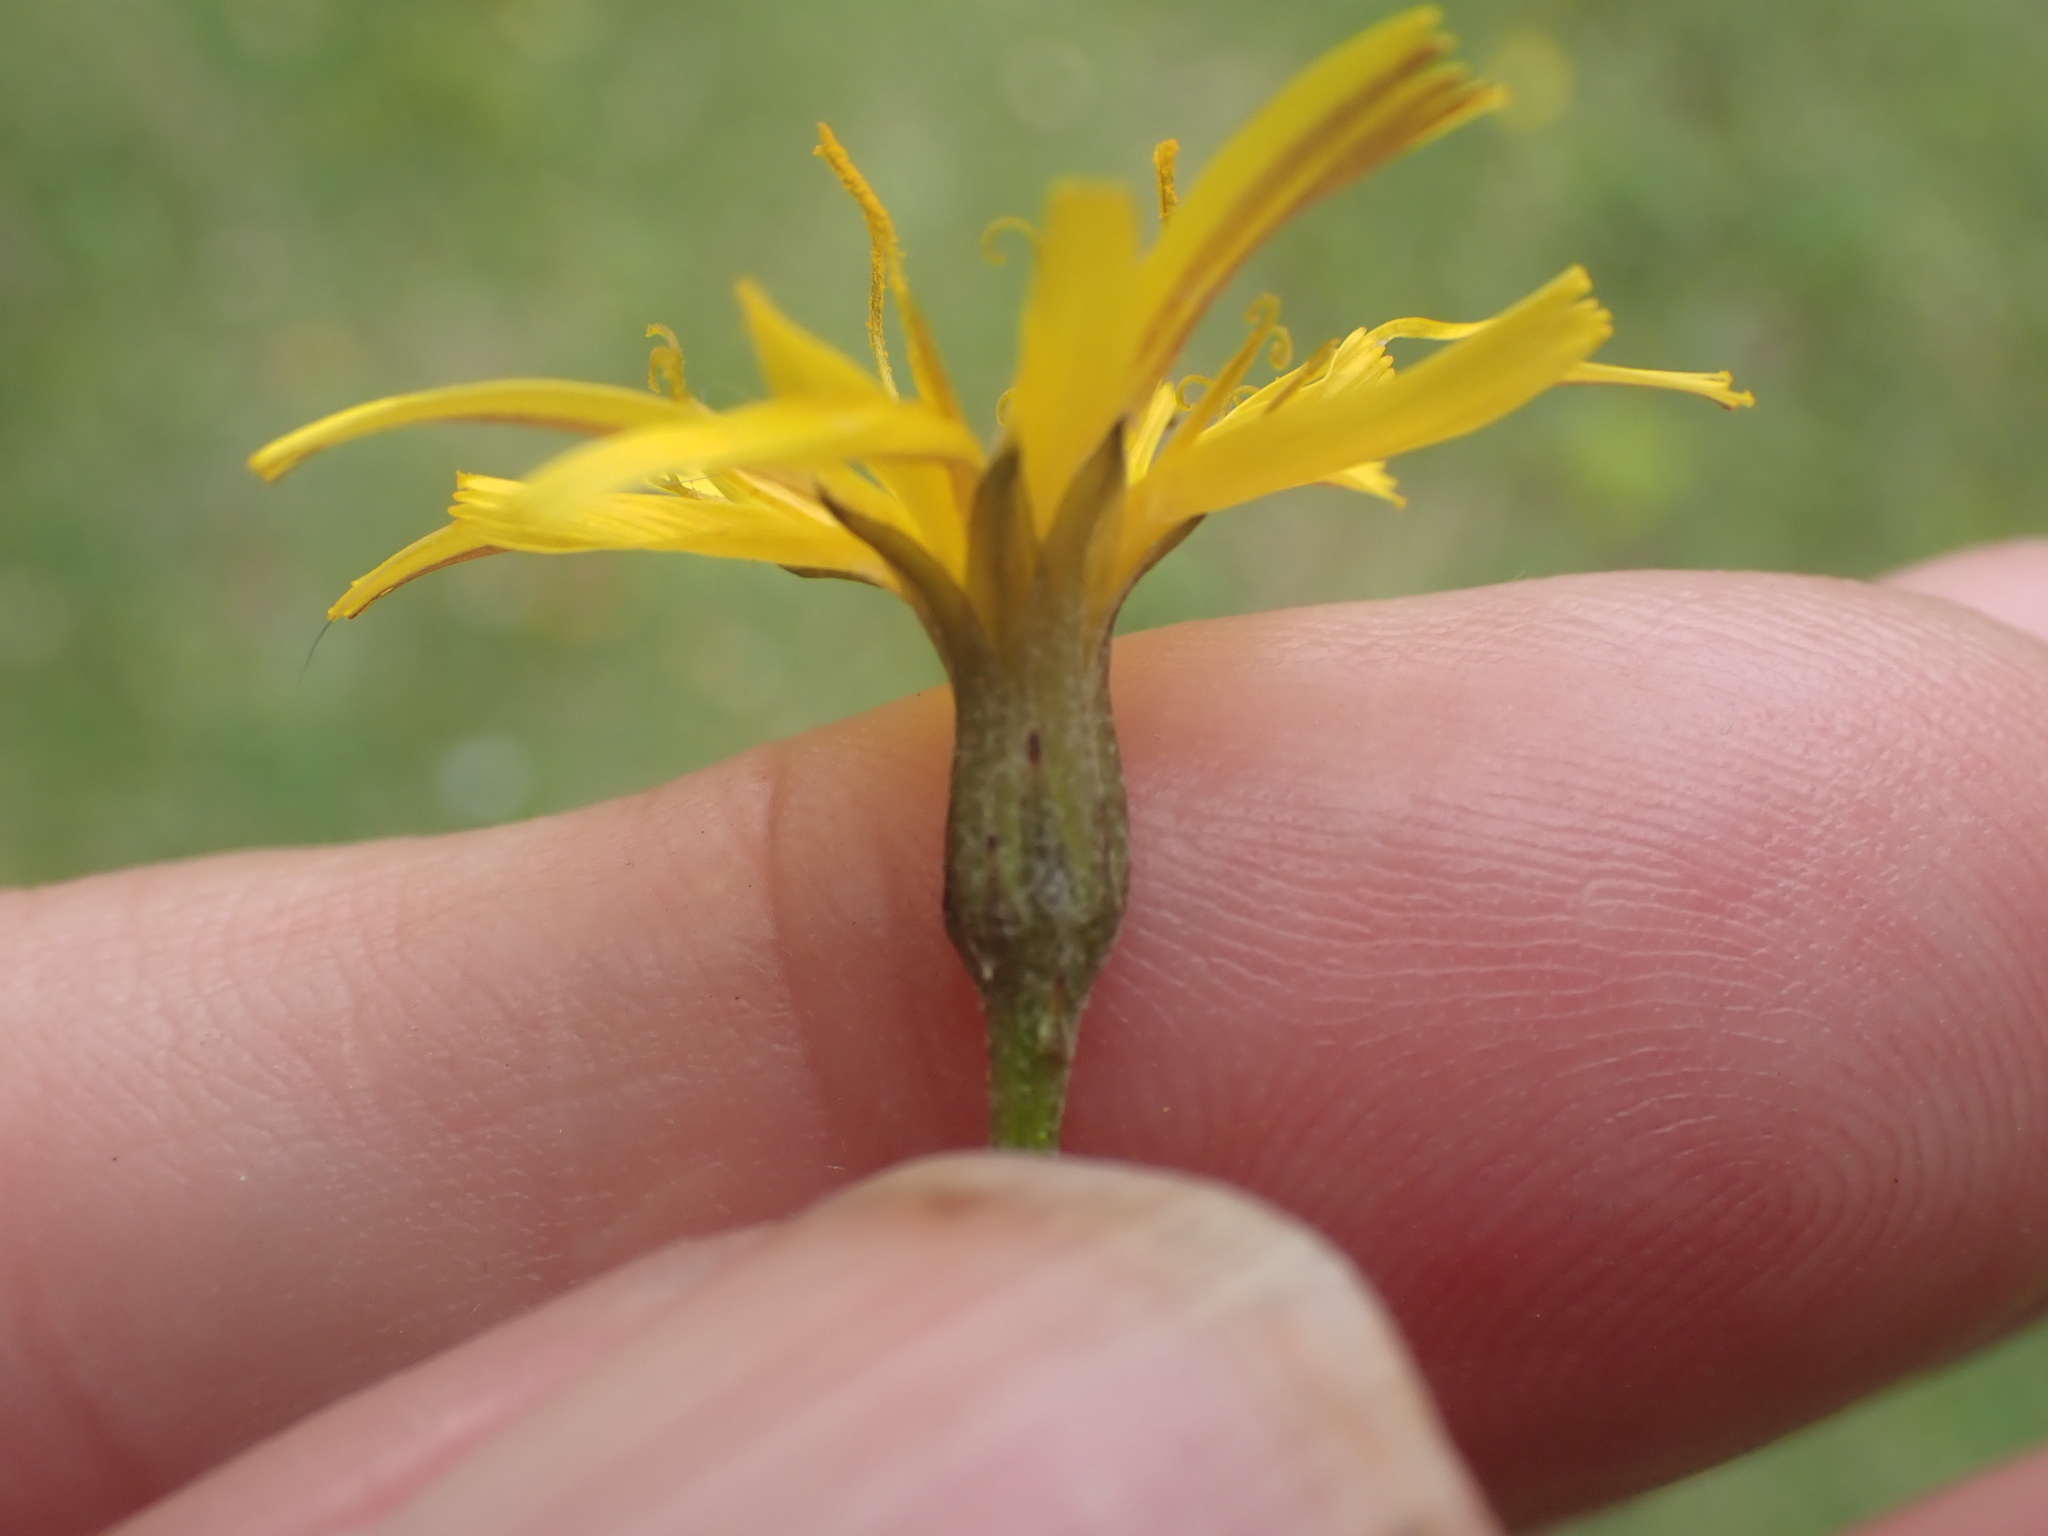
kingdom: Plantae
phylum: Tracheophyta
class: Magnoliopsida
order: Asterales
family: Asteraceae
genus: Scorzoneroides
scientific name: Scorzoneroides autumnalis
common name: Autumn hawkbit
